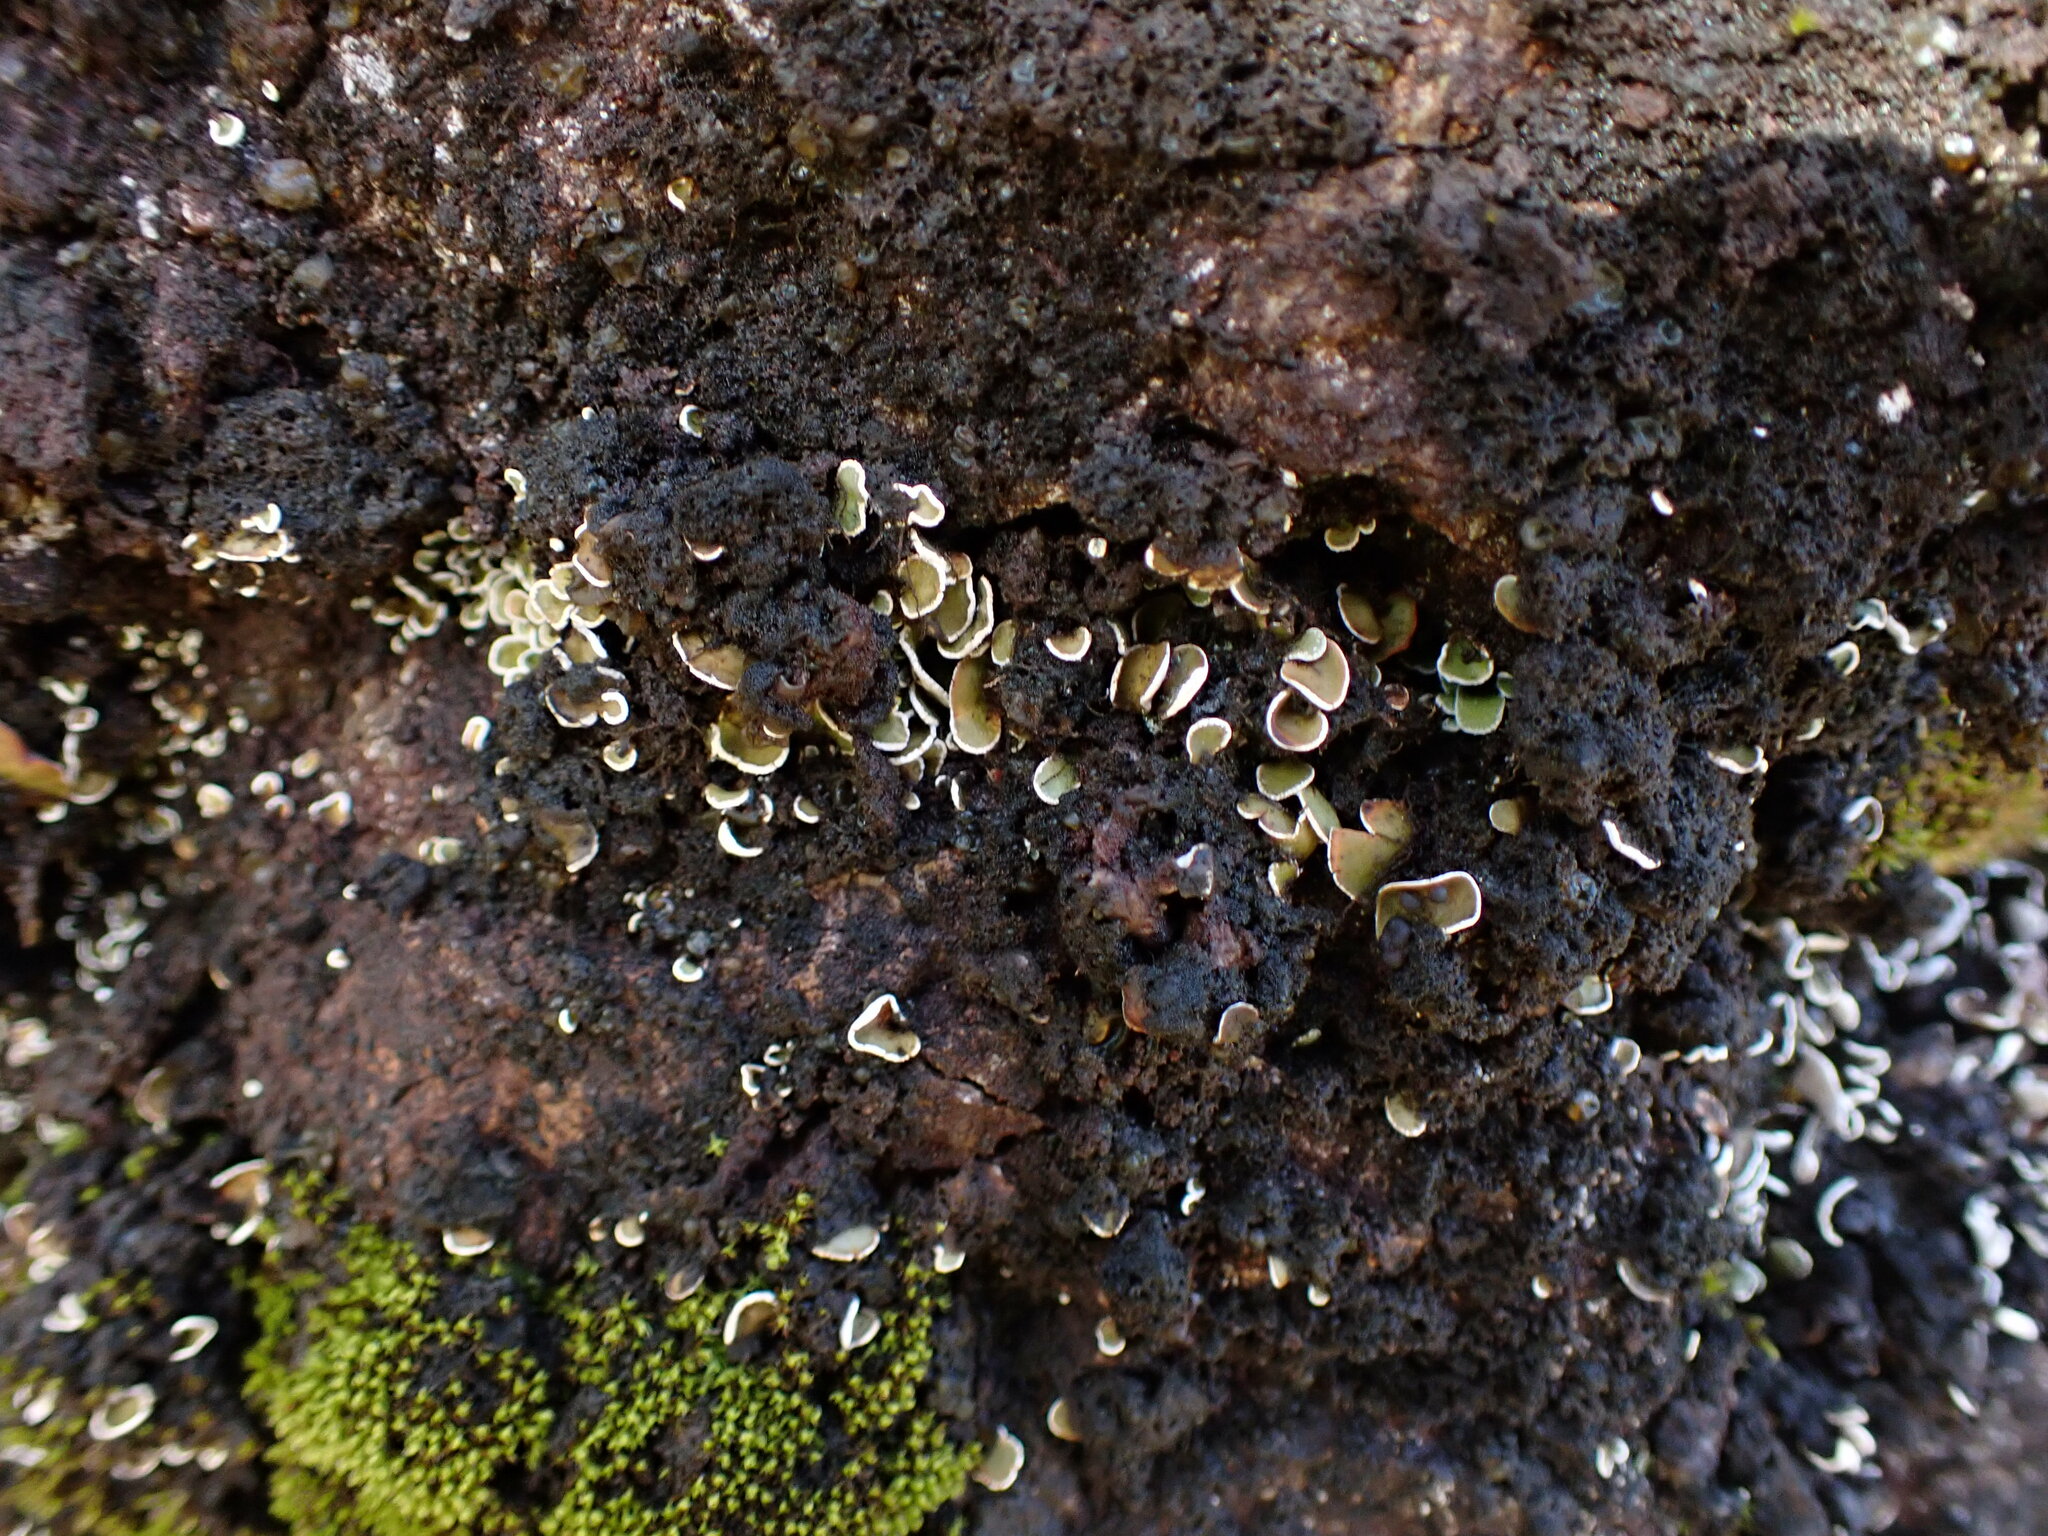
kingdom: Fungi
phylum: Ascomycota
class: Lecanoromycetes
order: Lecanorales
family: Psoraceae
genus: Psora
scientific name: Psora nipponica
